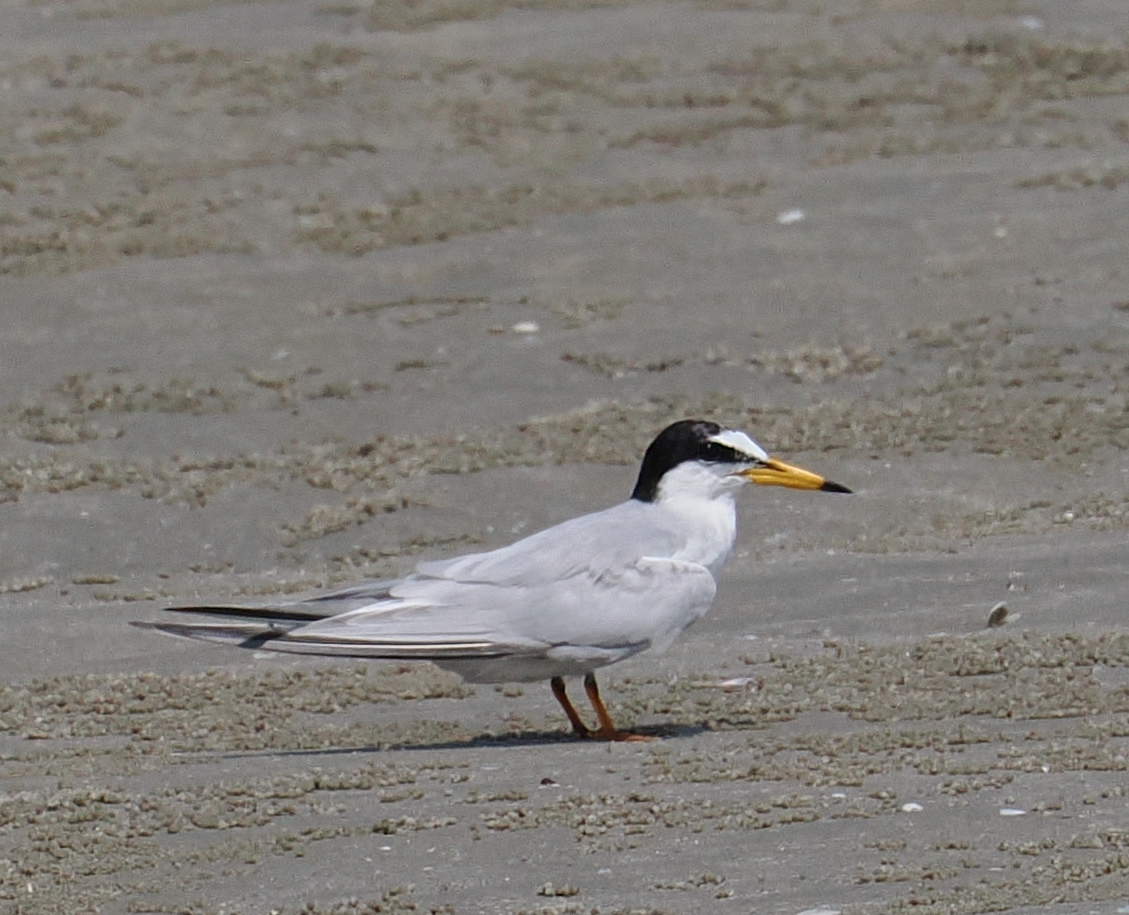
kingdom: Animalia
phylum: Chordata
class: Aves
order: Charadriiformes
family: Laridae
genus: Sternula
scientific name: Sternula albifrons
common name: Little tern
